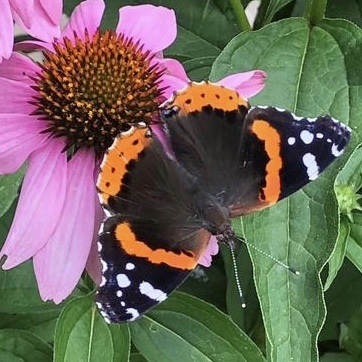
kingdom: Animalia
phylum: Arthropoda
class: Insecta
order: Lepidoptera
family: Nymphalidae
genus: Vanessa
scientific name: Vanessa atalanta
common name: Red admiral
